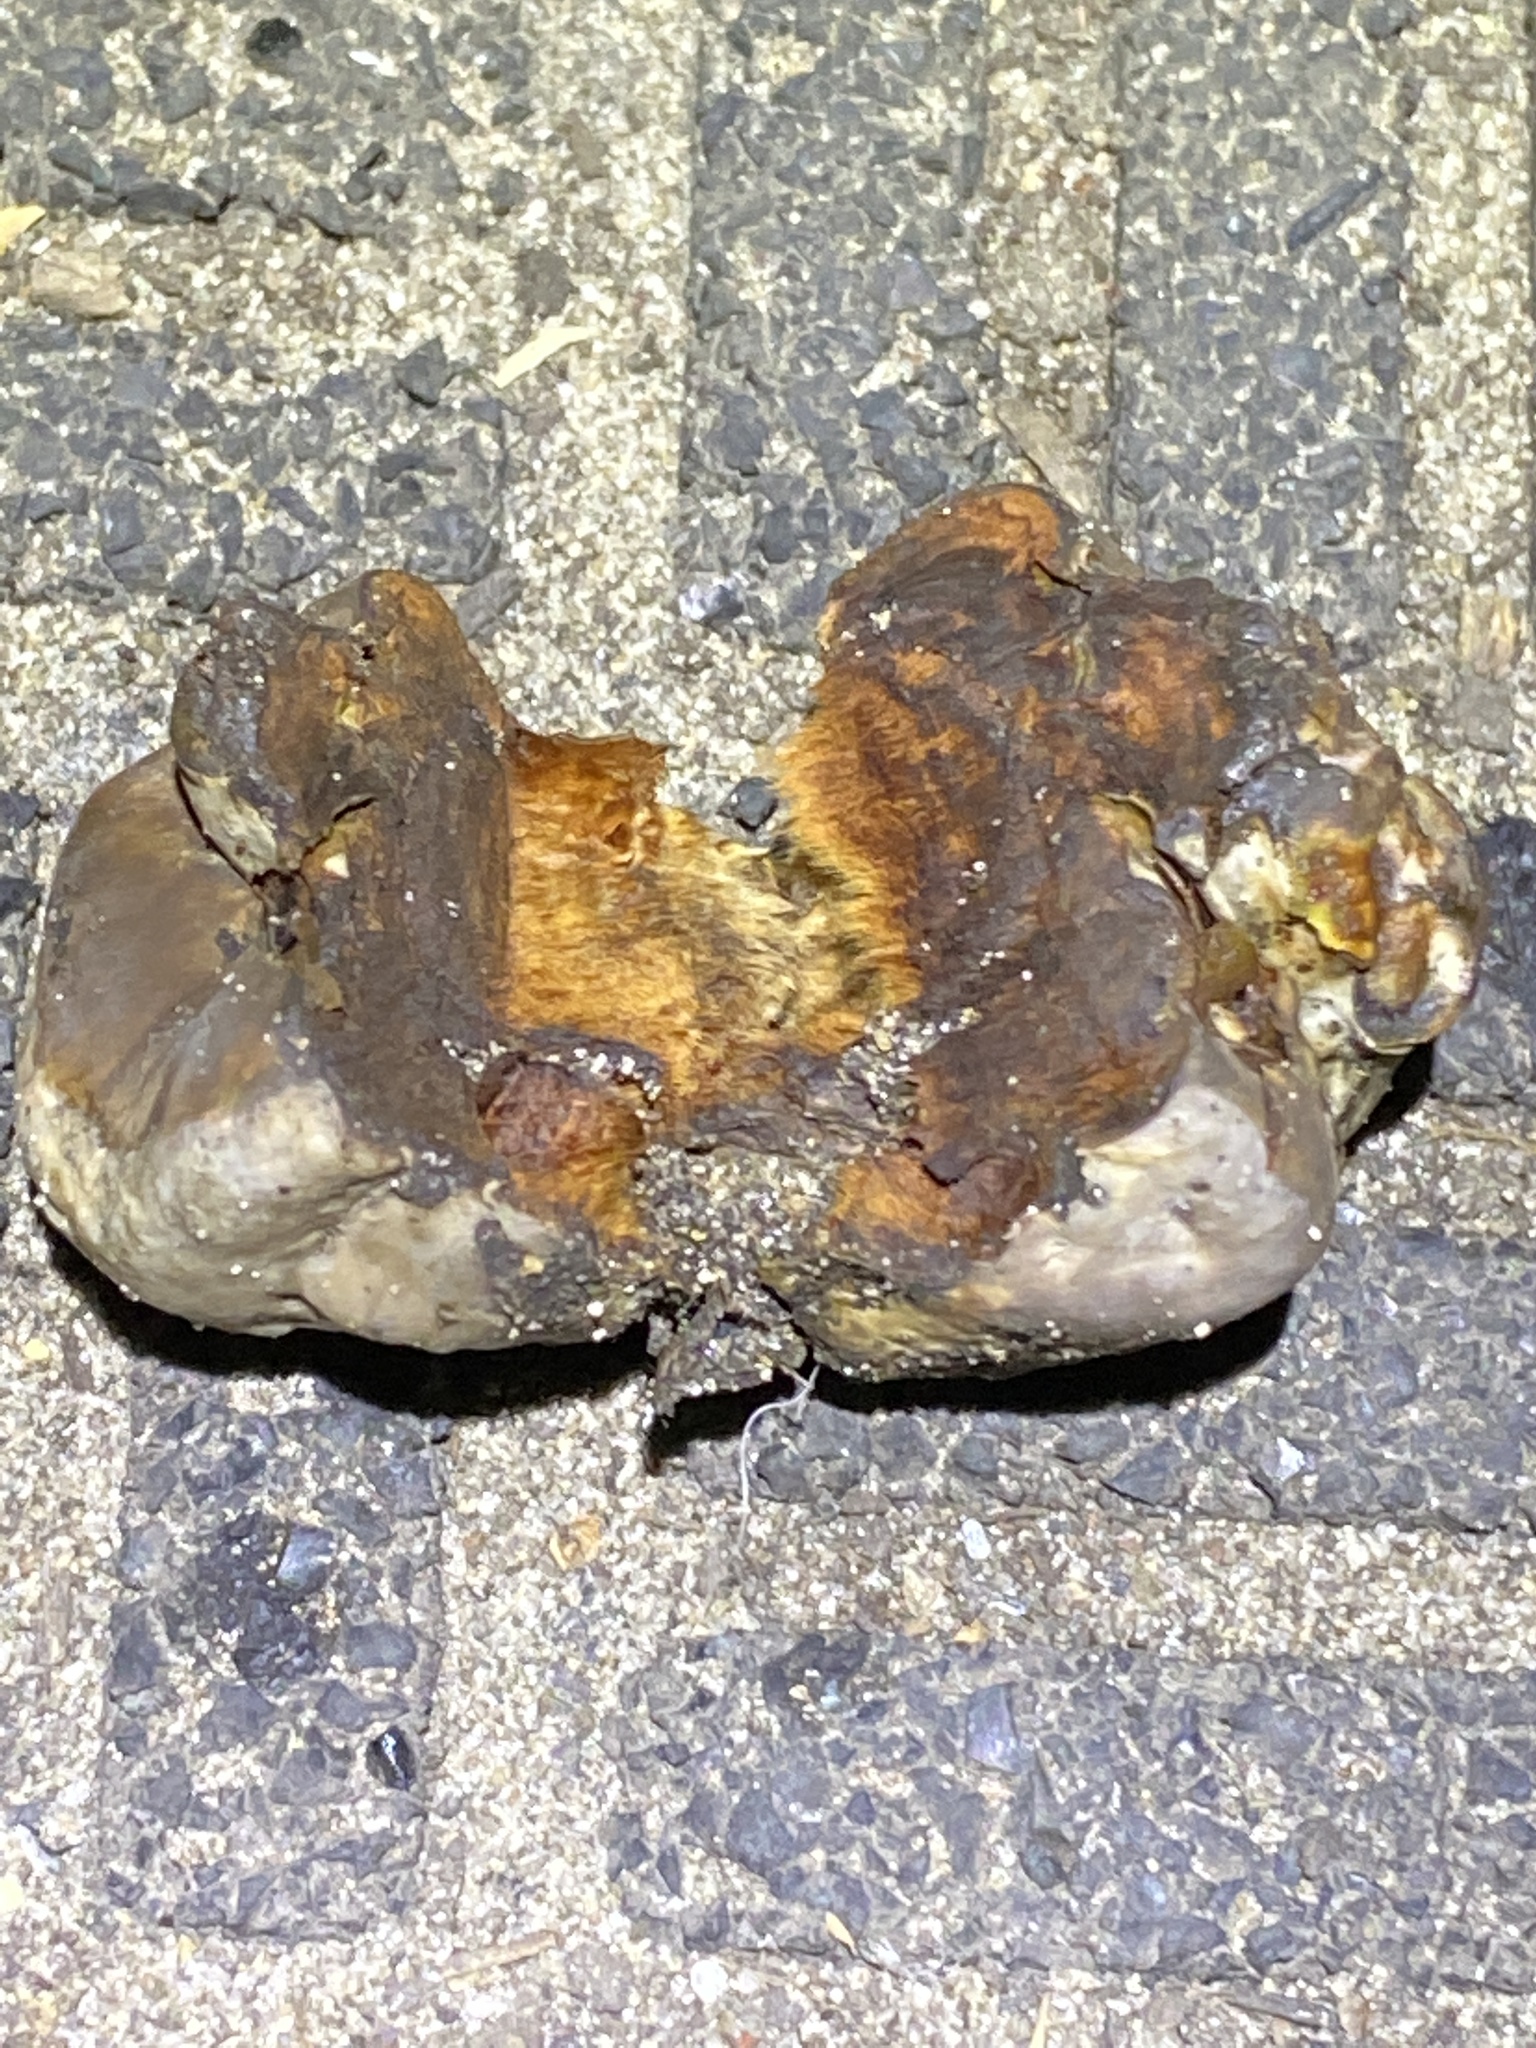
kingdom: Fungi
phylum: Basidiomycota
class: Agaricomycetes
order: Agaricales
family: Entolomataceae
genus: Entoloma
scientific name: Entoloma abortivum
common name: Aborted entoloma
